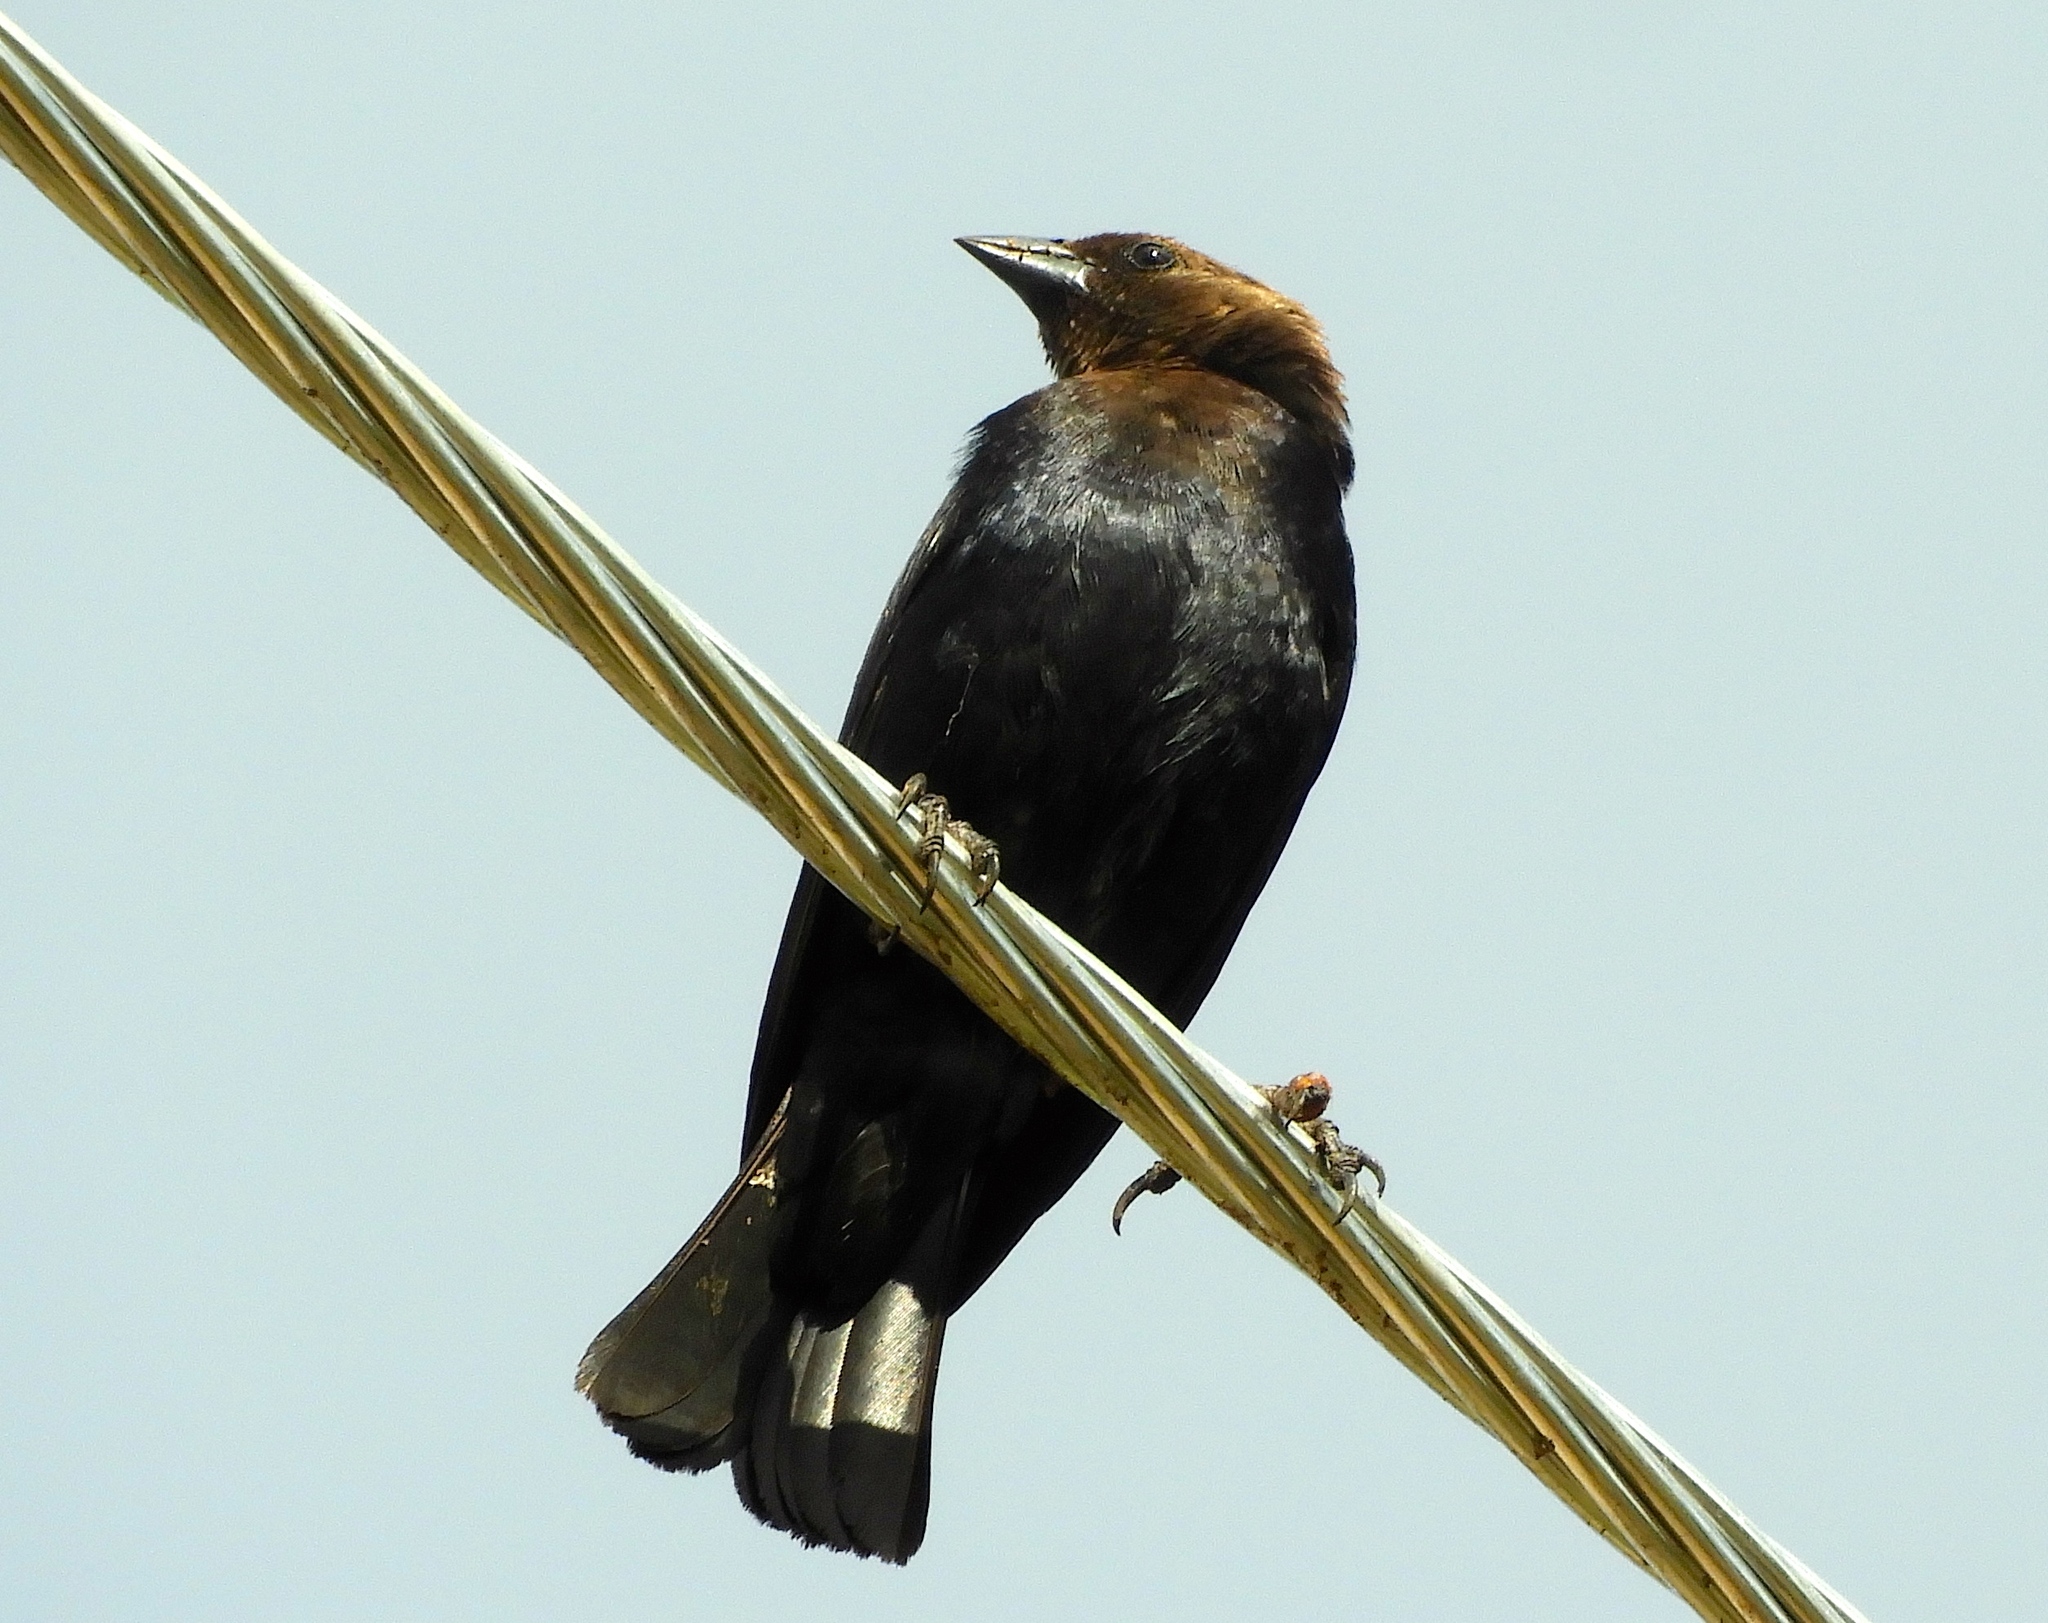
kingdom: Animalia
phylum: Chordata
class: Aves
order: Passeriformes
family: Icteridae
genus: Molothrus
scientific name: Molothrus ater
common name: Brown-headed cowbird
